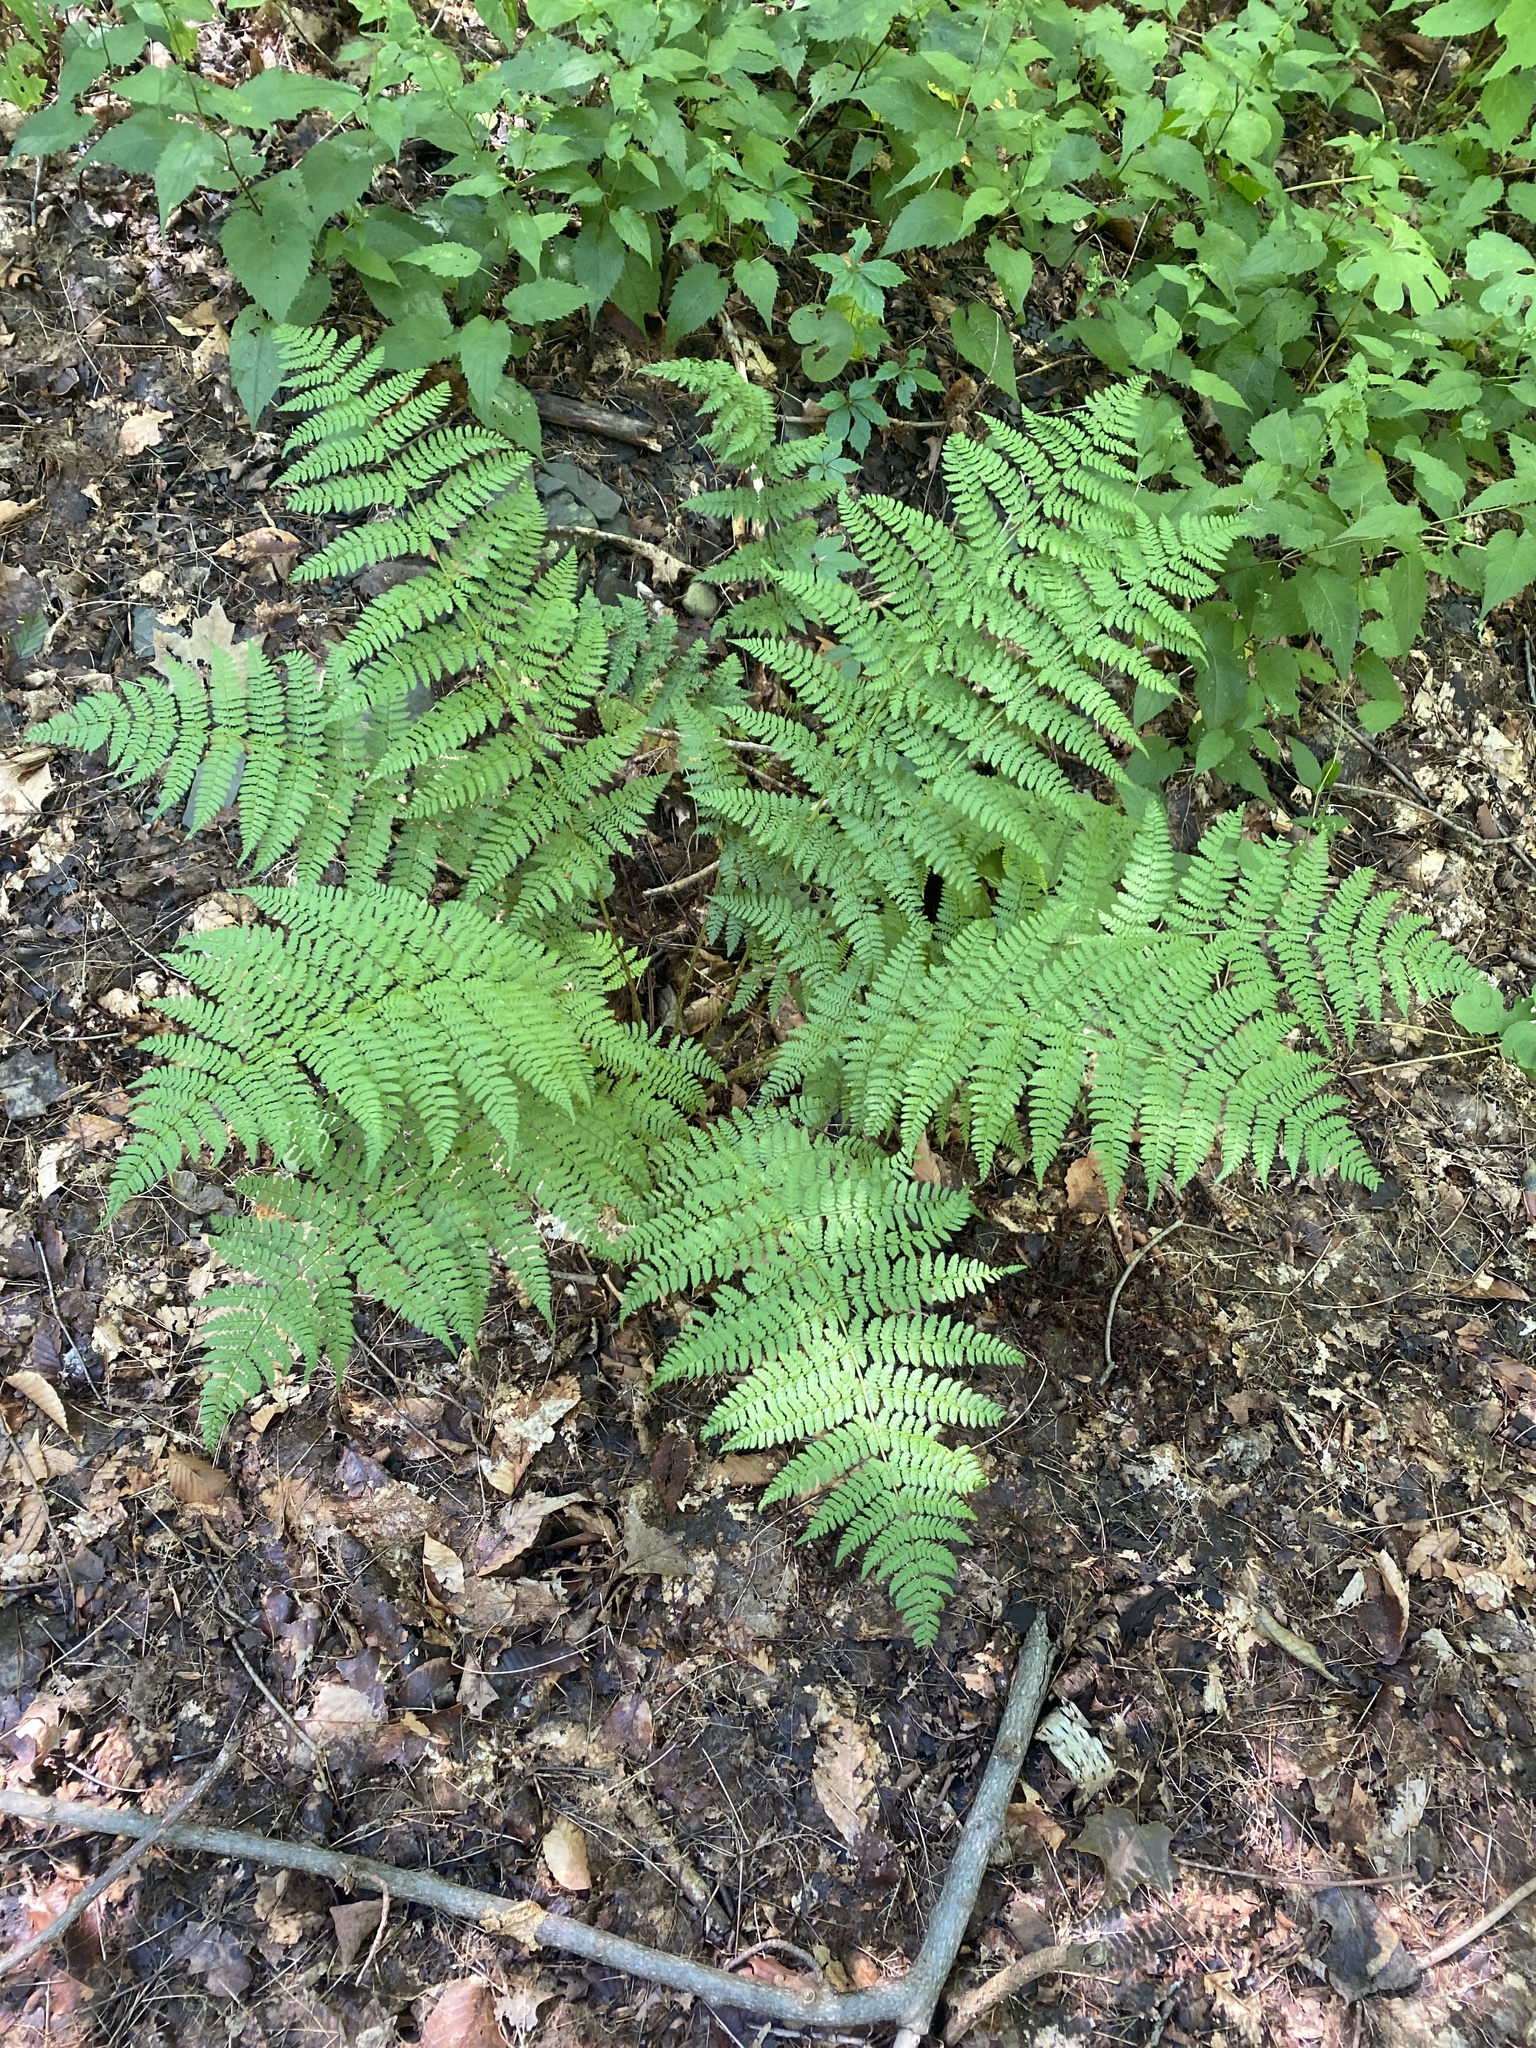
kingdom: Plantae
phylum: Tracheophyta
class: Polypodiopsida
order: Polypodiales
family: Dryopteridaceae
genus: Dryopteris
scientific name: Dryopteris intermedia
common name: Evergreen wood fern
